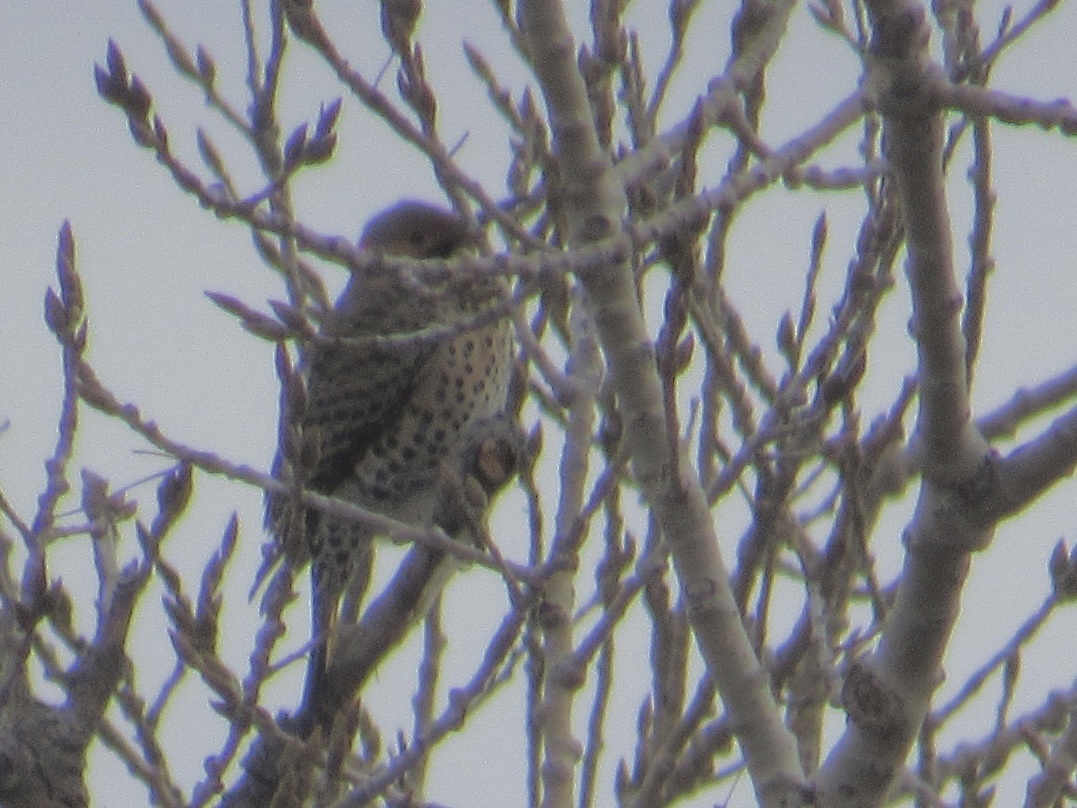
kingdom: Animalia
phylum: Chordata
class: Aves
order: Piciformes
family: Picidae
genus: Colaptes
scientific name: Colaptes auratus
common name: Northern flicker
